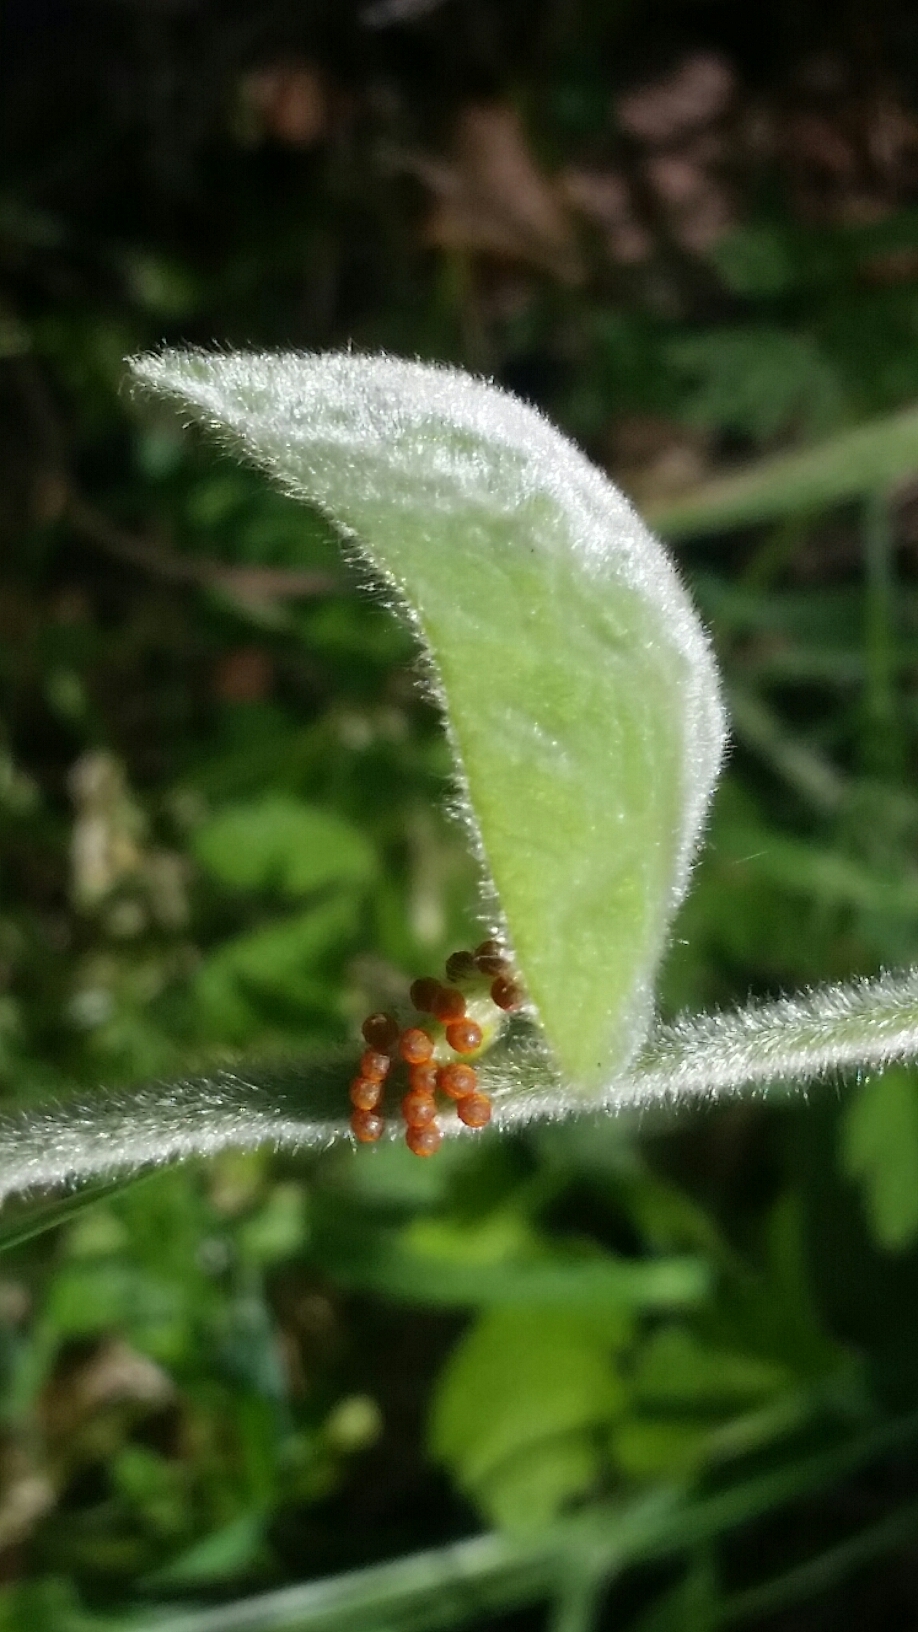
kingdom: Animalia
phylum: Arthropoda
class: Insecta
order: Lepidoptera
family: Papilionidae
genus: Battus
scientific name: Battus philenor
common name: Pipevine swallowtail
